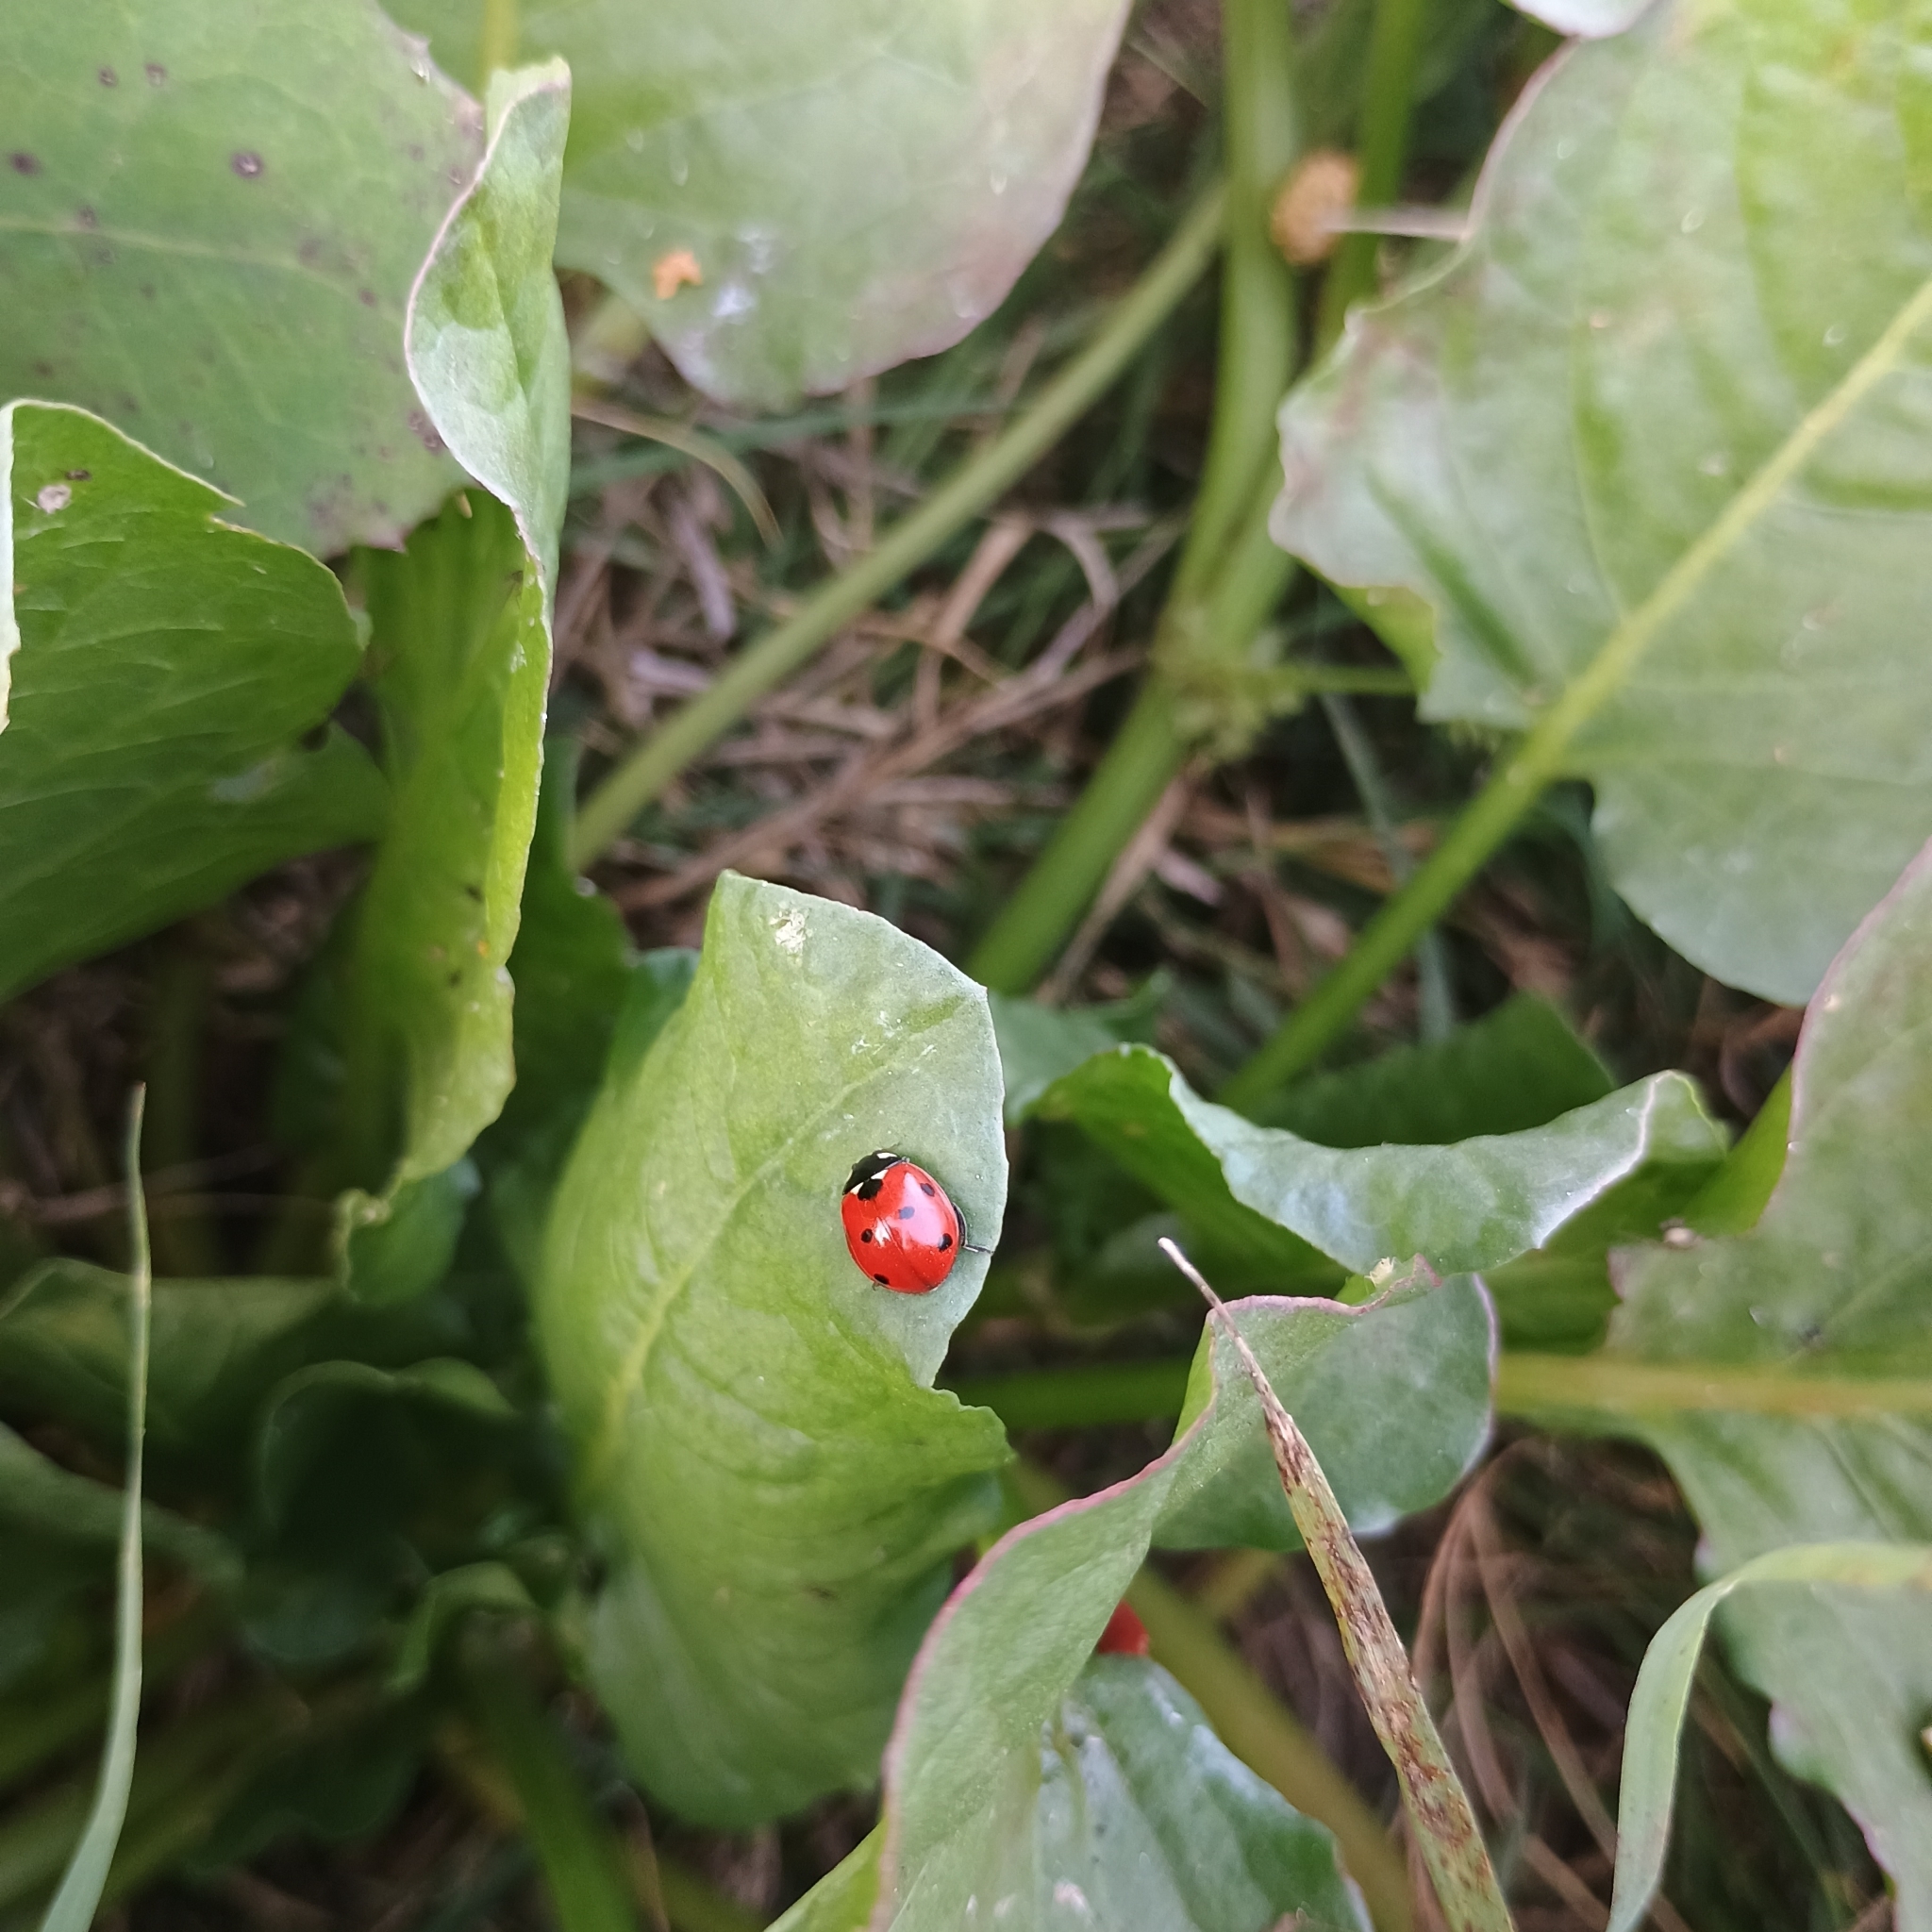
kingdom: Animalia
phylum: Arthropoda
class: Insecta
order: Coleoptera
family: Coccinellidae
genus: Coccinella
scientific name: Coccinella septempunctata
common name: Sevenspotted lady beetle
